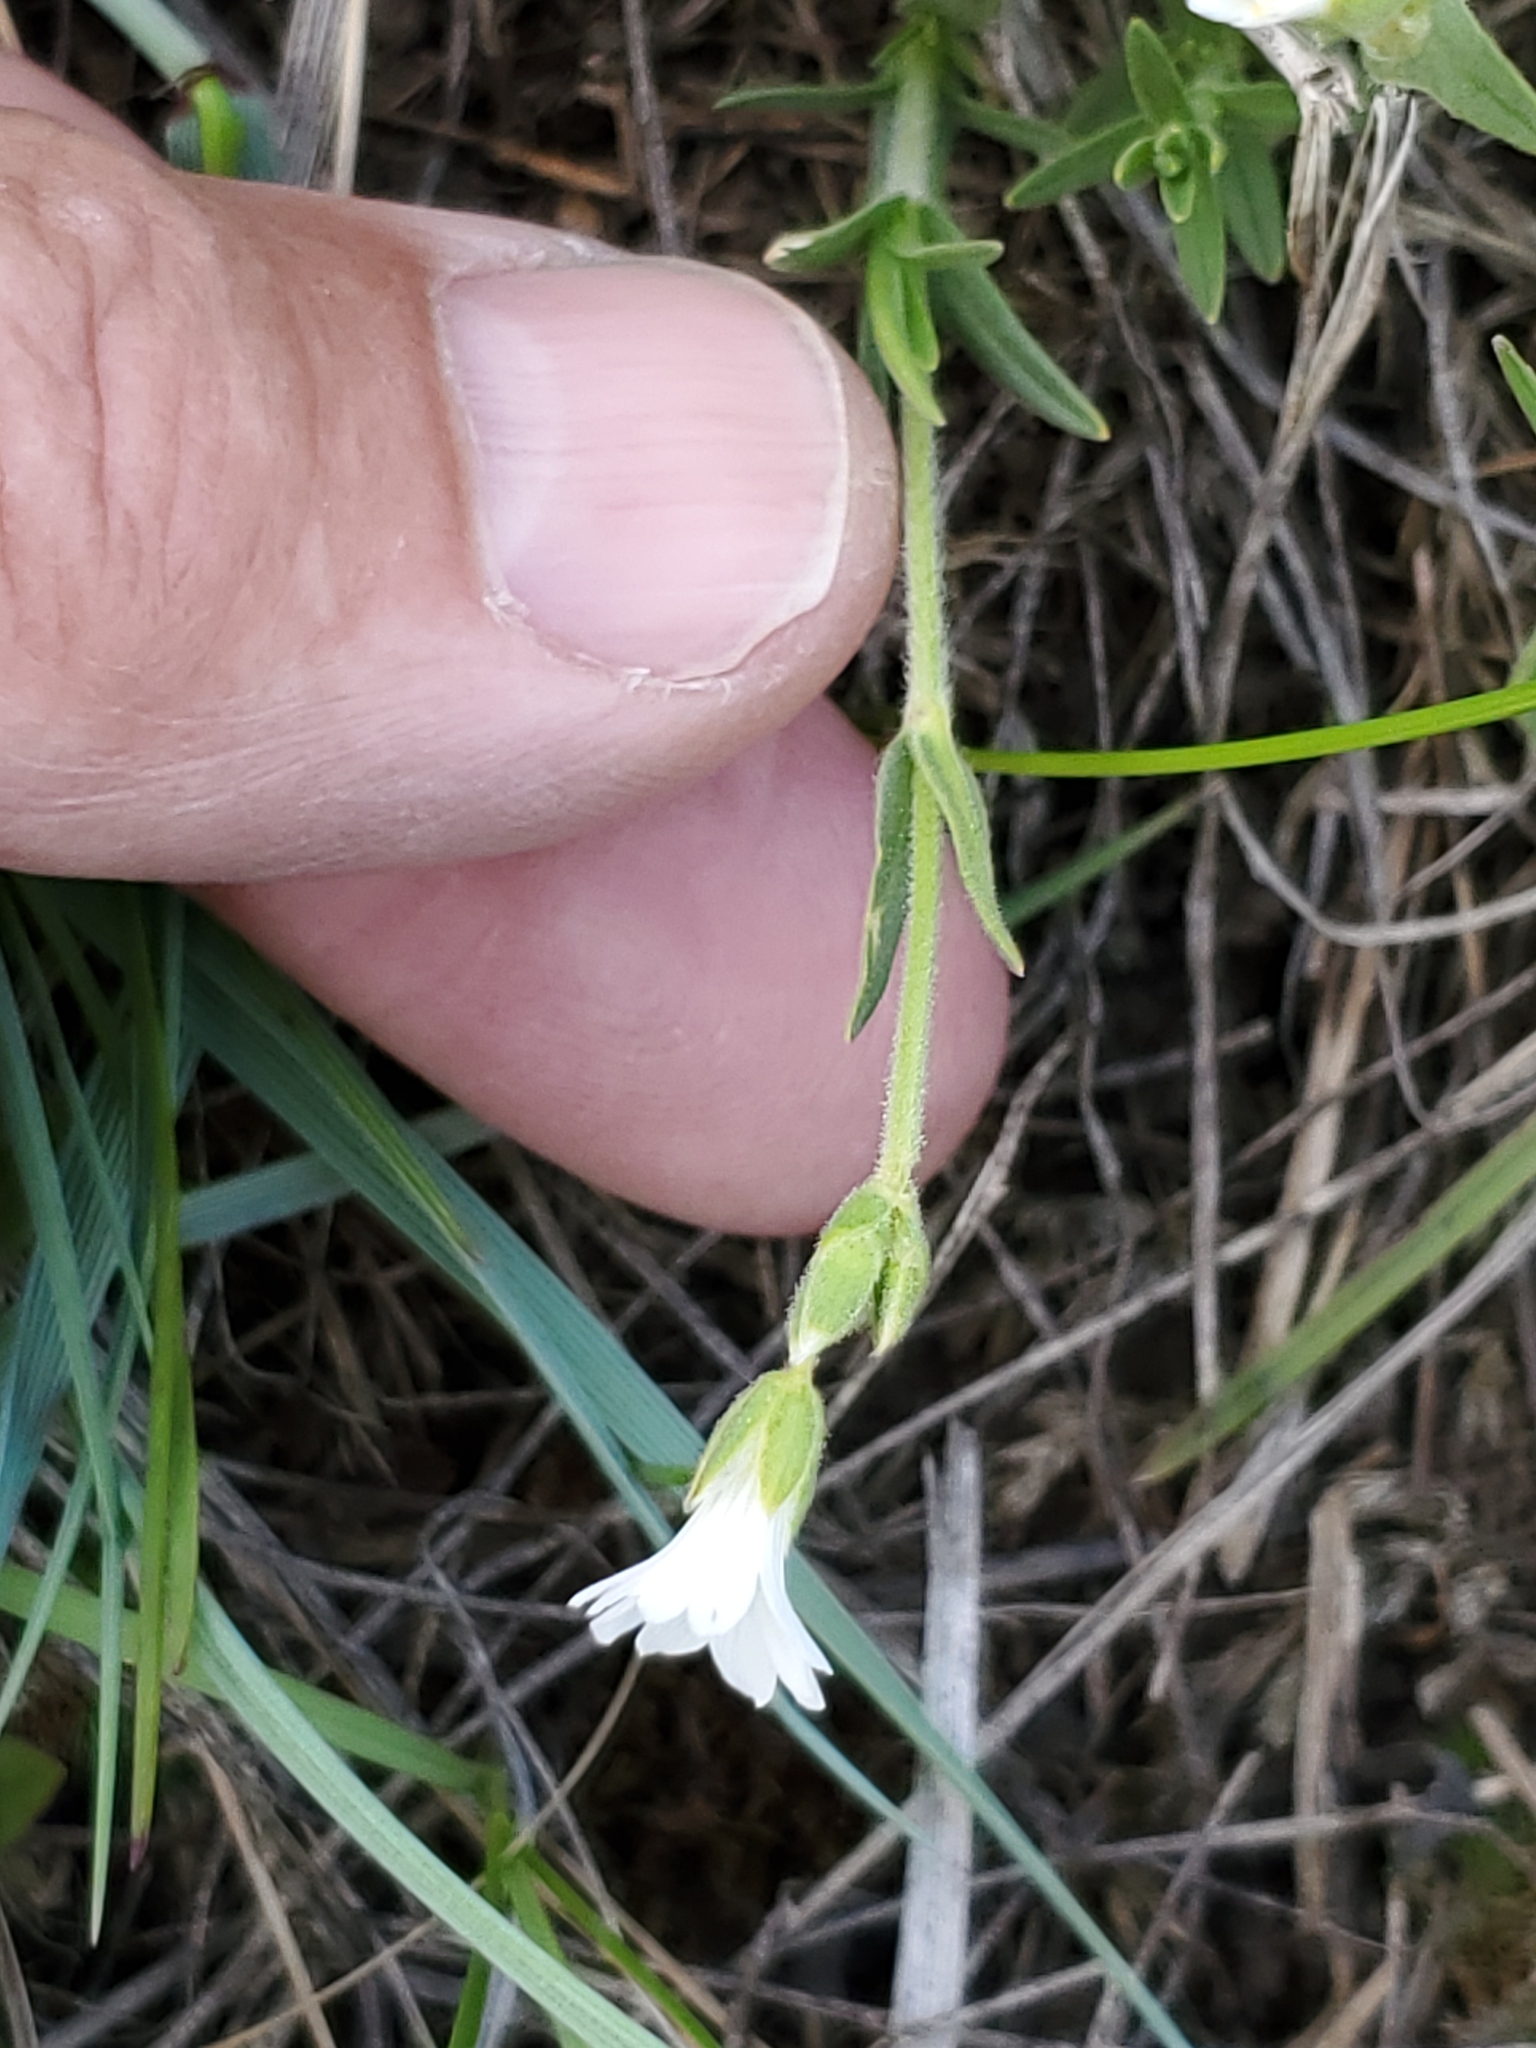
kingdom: Plantae
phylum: Tracheophyta
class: Magnoliopsida
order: Caryophyllales
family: Caryophyllaceae
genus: Cerastium
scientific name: Cerastium arvense
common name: Field mouse-ear
